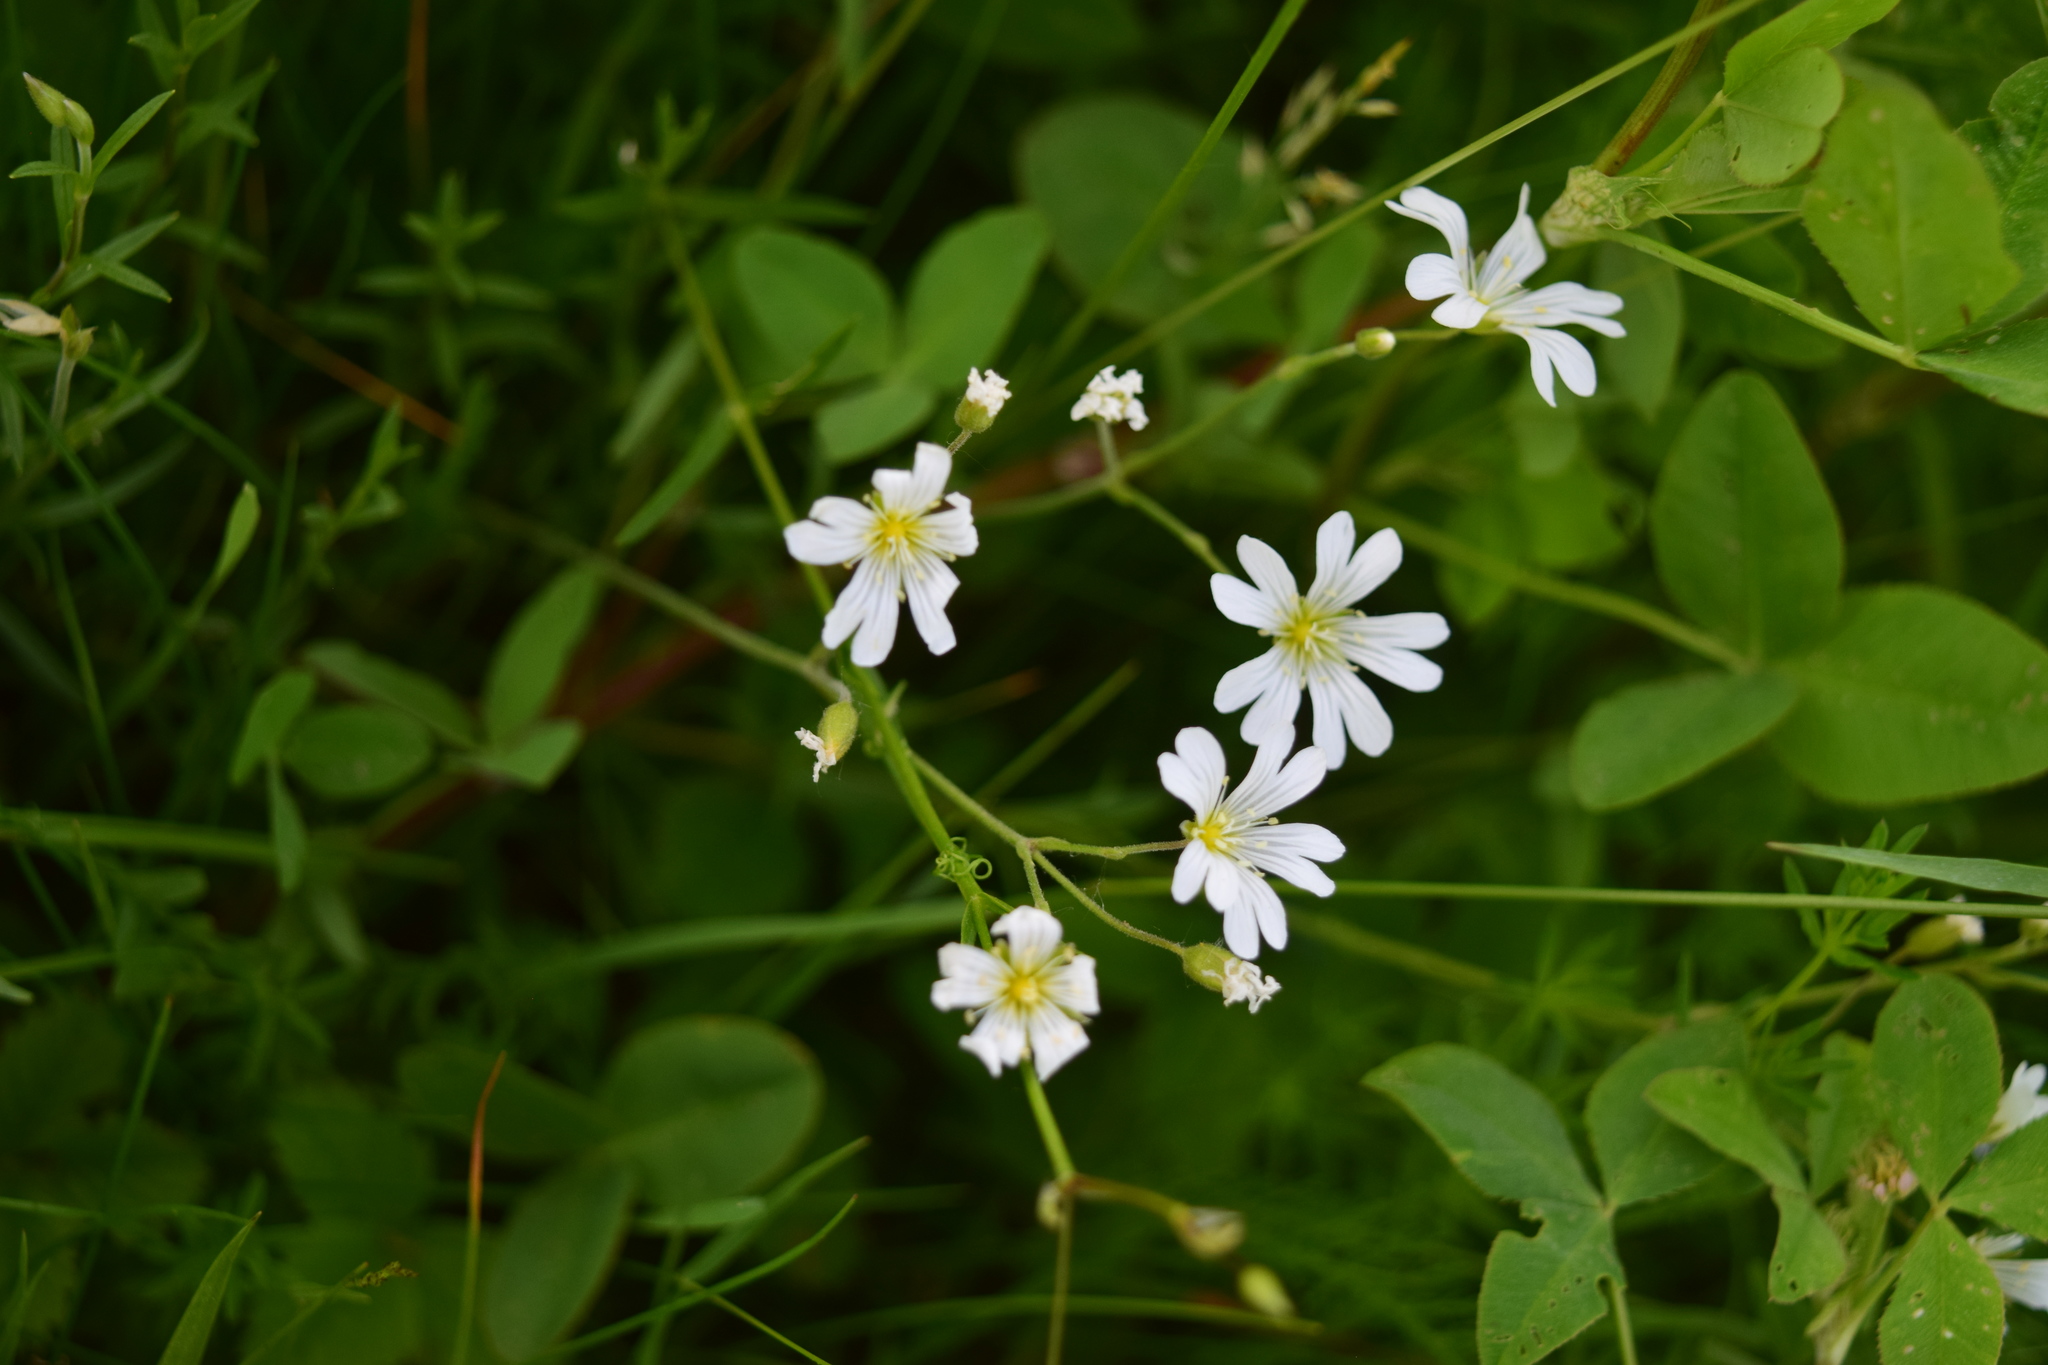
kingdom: Plantae
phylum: Tracheophyta
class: Magnoliopsida
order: Caryophyllales
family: Caryophyllaceae
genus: Cerastium
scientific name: Cerastium arvense
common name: Field mouse-ear
